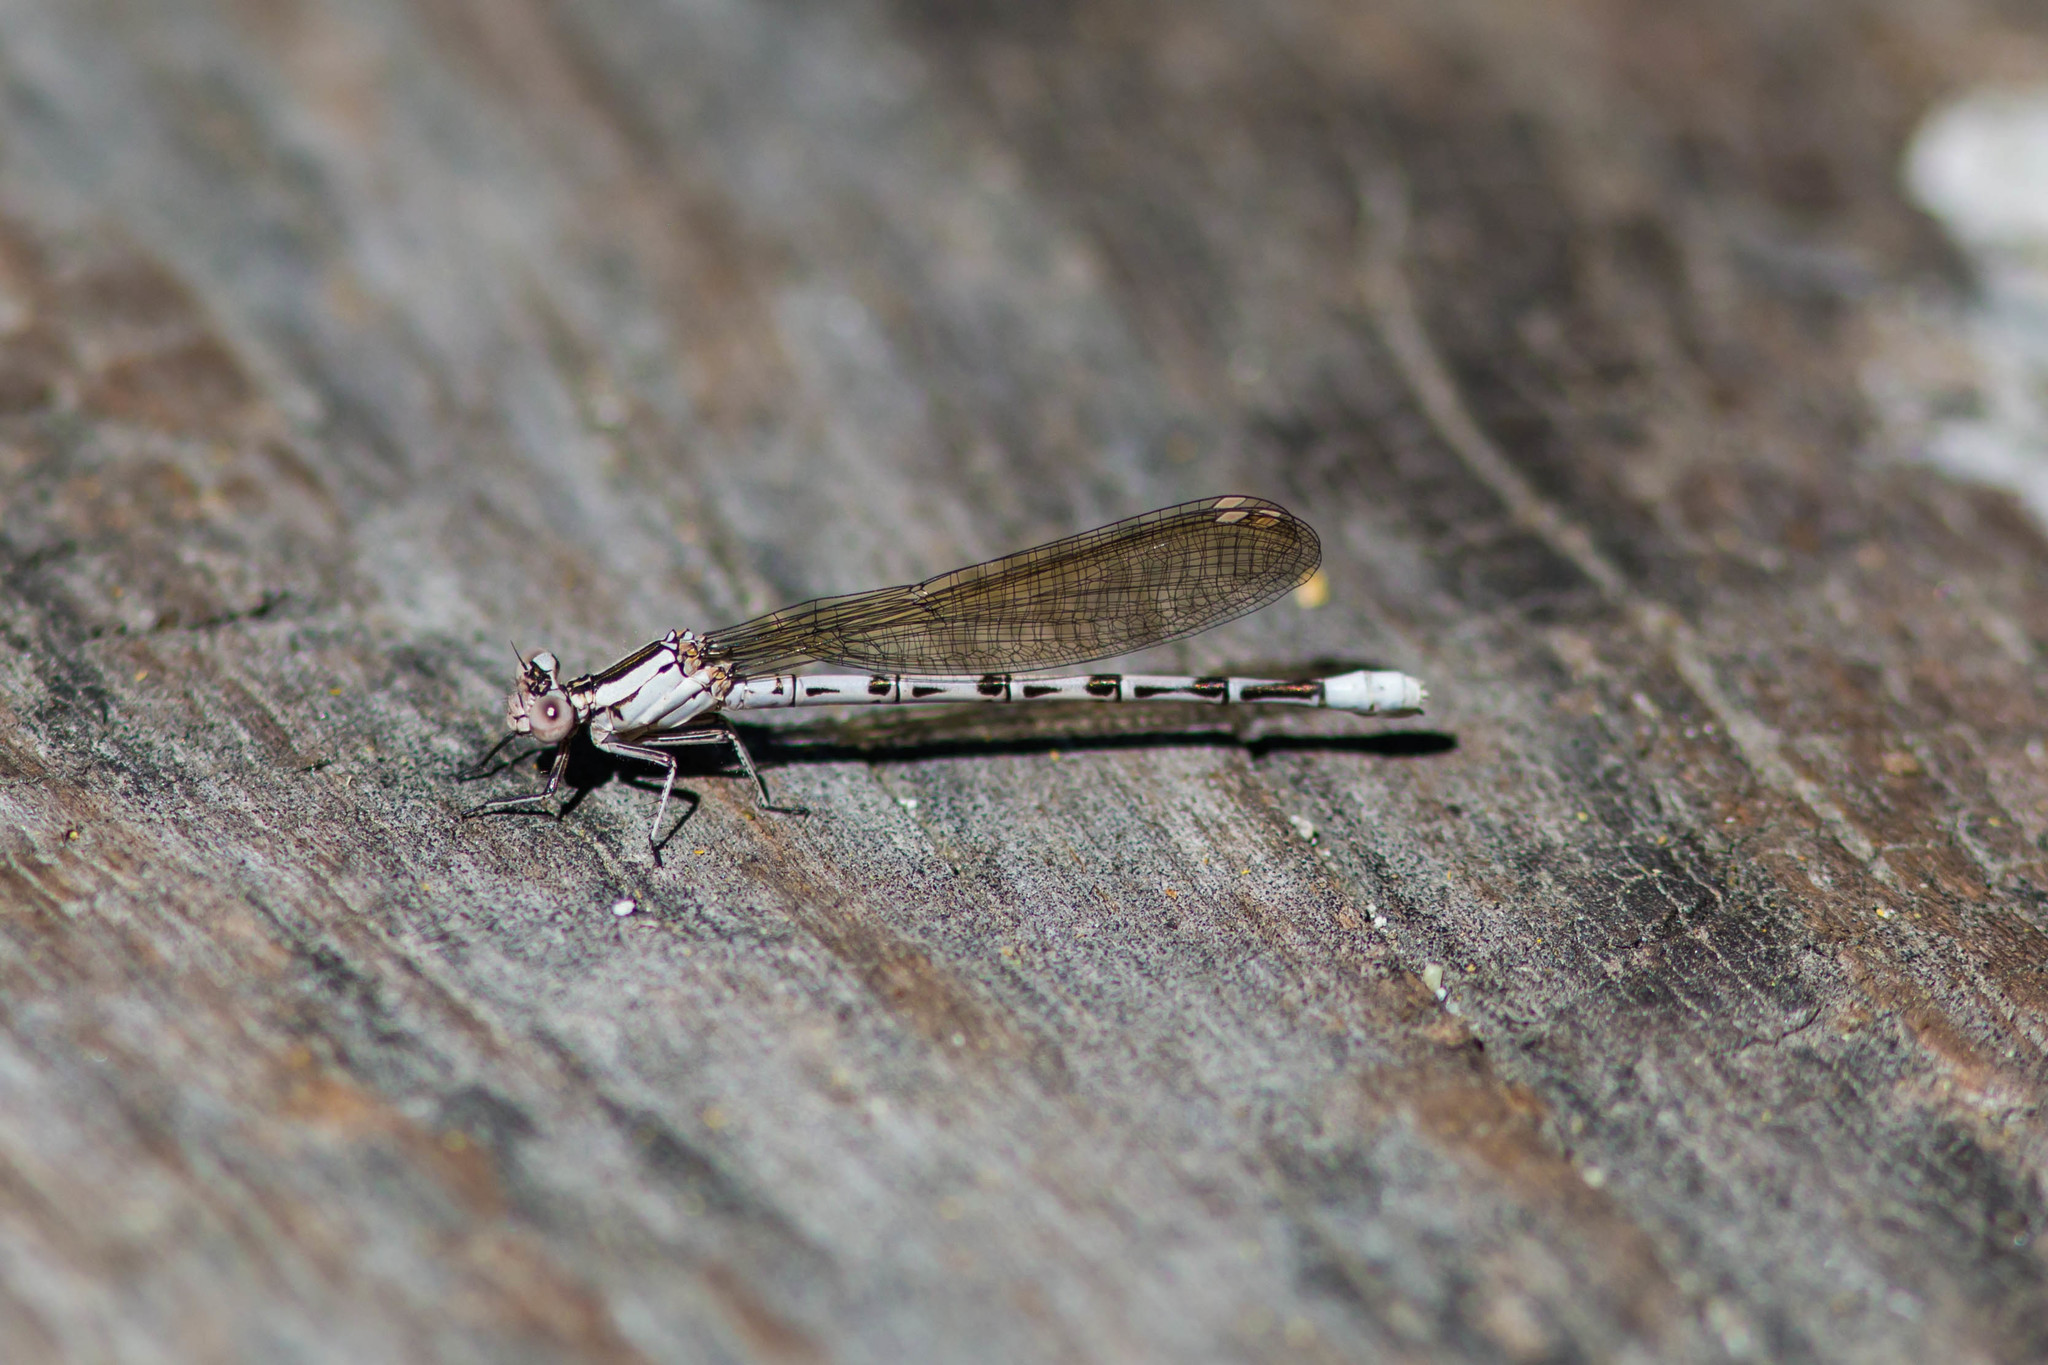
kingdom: Animalia
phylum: Arthropoda
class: Insecta
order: Odonata
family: Coenagrionidae
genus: Argia
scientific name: Argia vivida
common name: Vivid dancer
